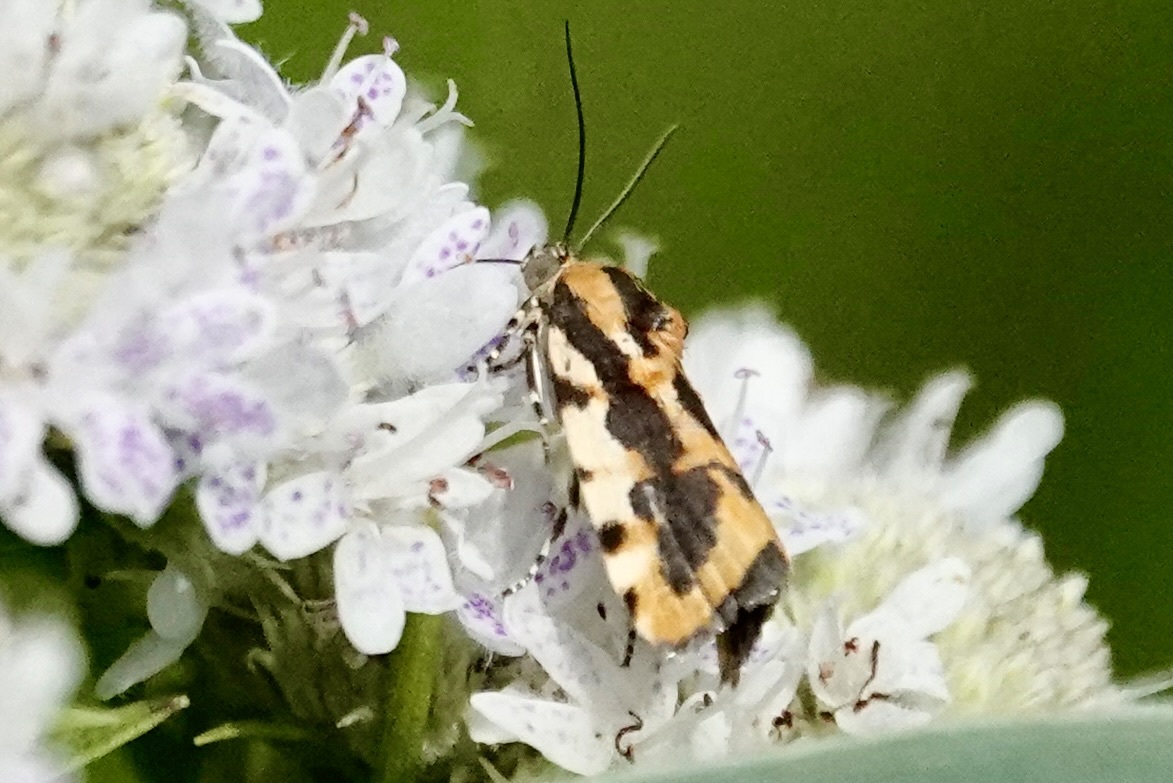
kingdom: Animalia
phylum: Arthropoda
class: Insecta
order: Lepidoptera
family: Noctuidae
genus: Acontia
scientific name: Acontia leo
